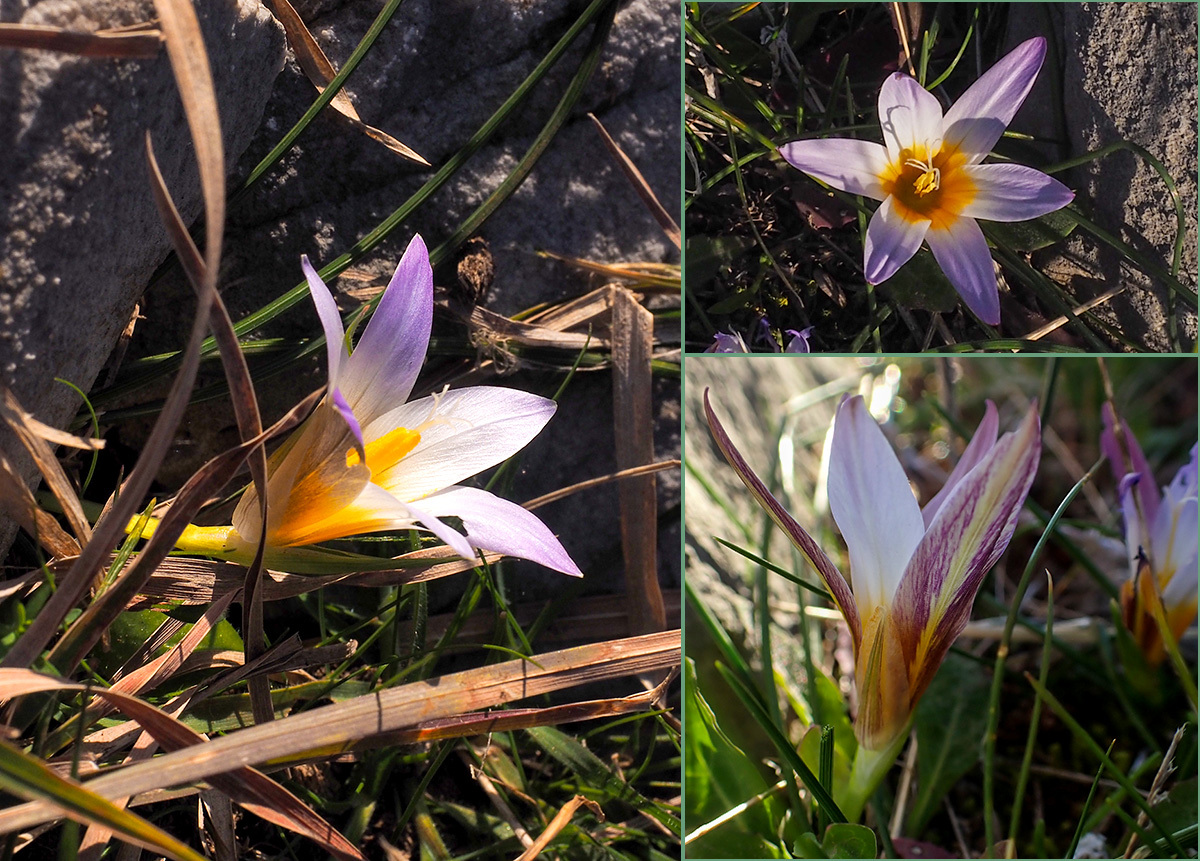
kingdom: Plantae
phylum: Tracheophyta
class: Liliopsida
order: Asparagales
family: Iridaceae
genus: Romulea
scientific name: Romulea bulbocodium
